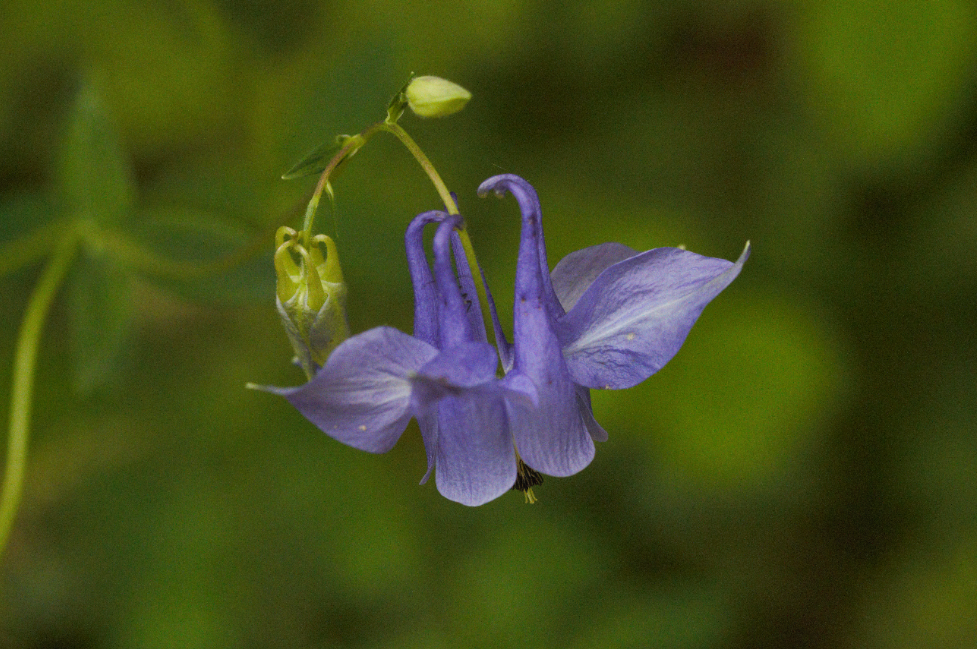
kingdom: Plantae
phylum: Tracheophyta
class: Magnoliopsida
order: Ranunculales
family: Ranunculaceae
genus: Aquilegia
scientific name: Aquilegia vulgaris
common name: Columbine
